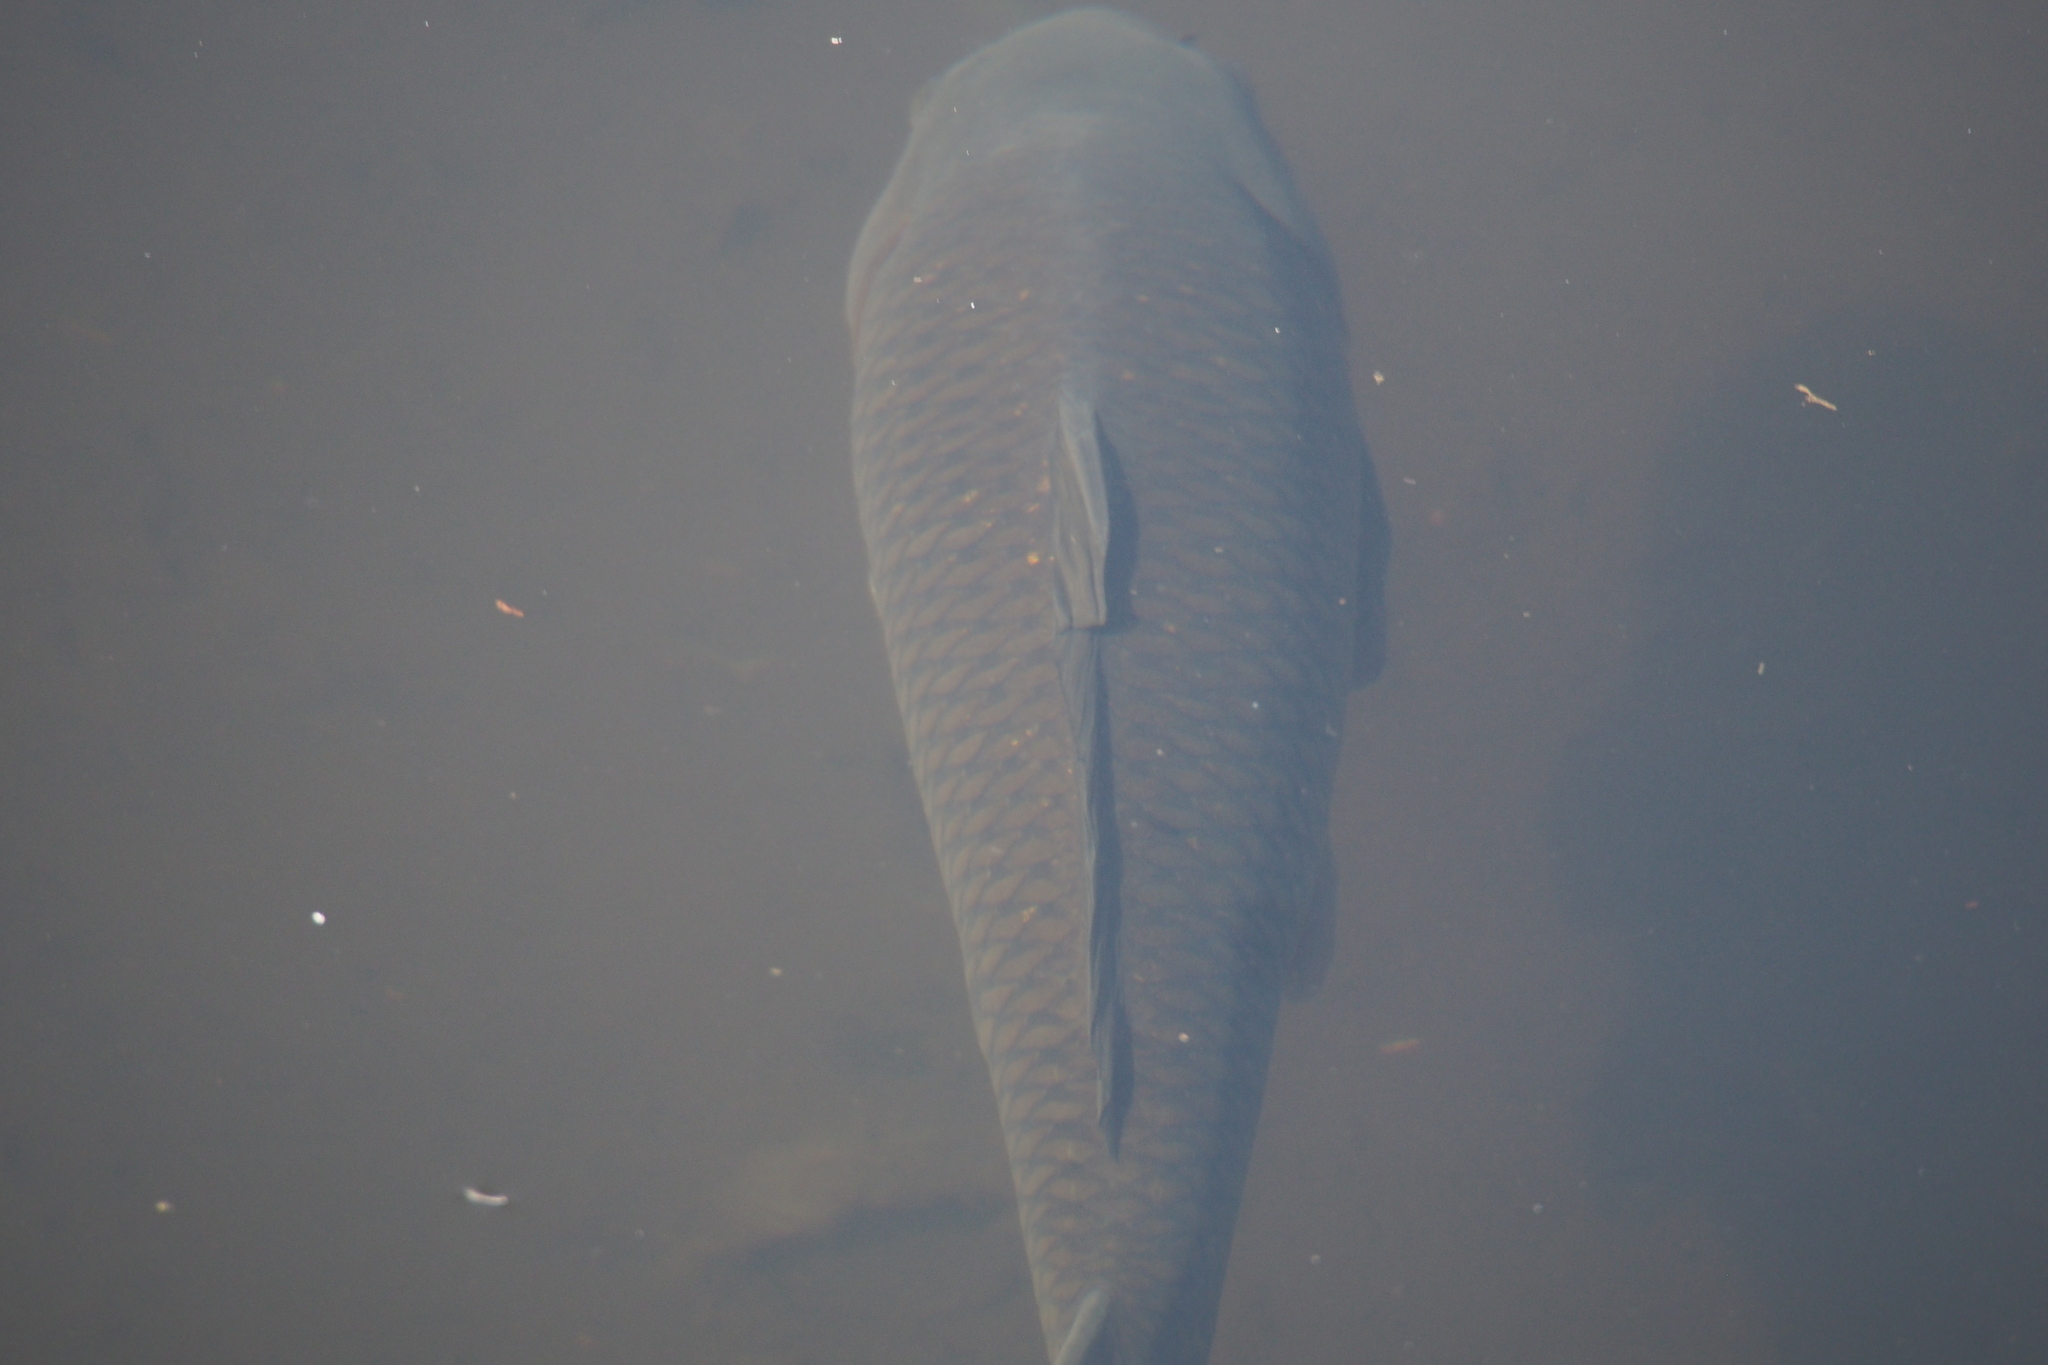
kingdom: Animalia
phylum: Chordata
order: Cypriniformes
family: Cyprinidae
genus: Cyprinus
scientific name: Cyprinus rubrofuscus
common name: Koi
